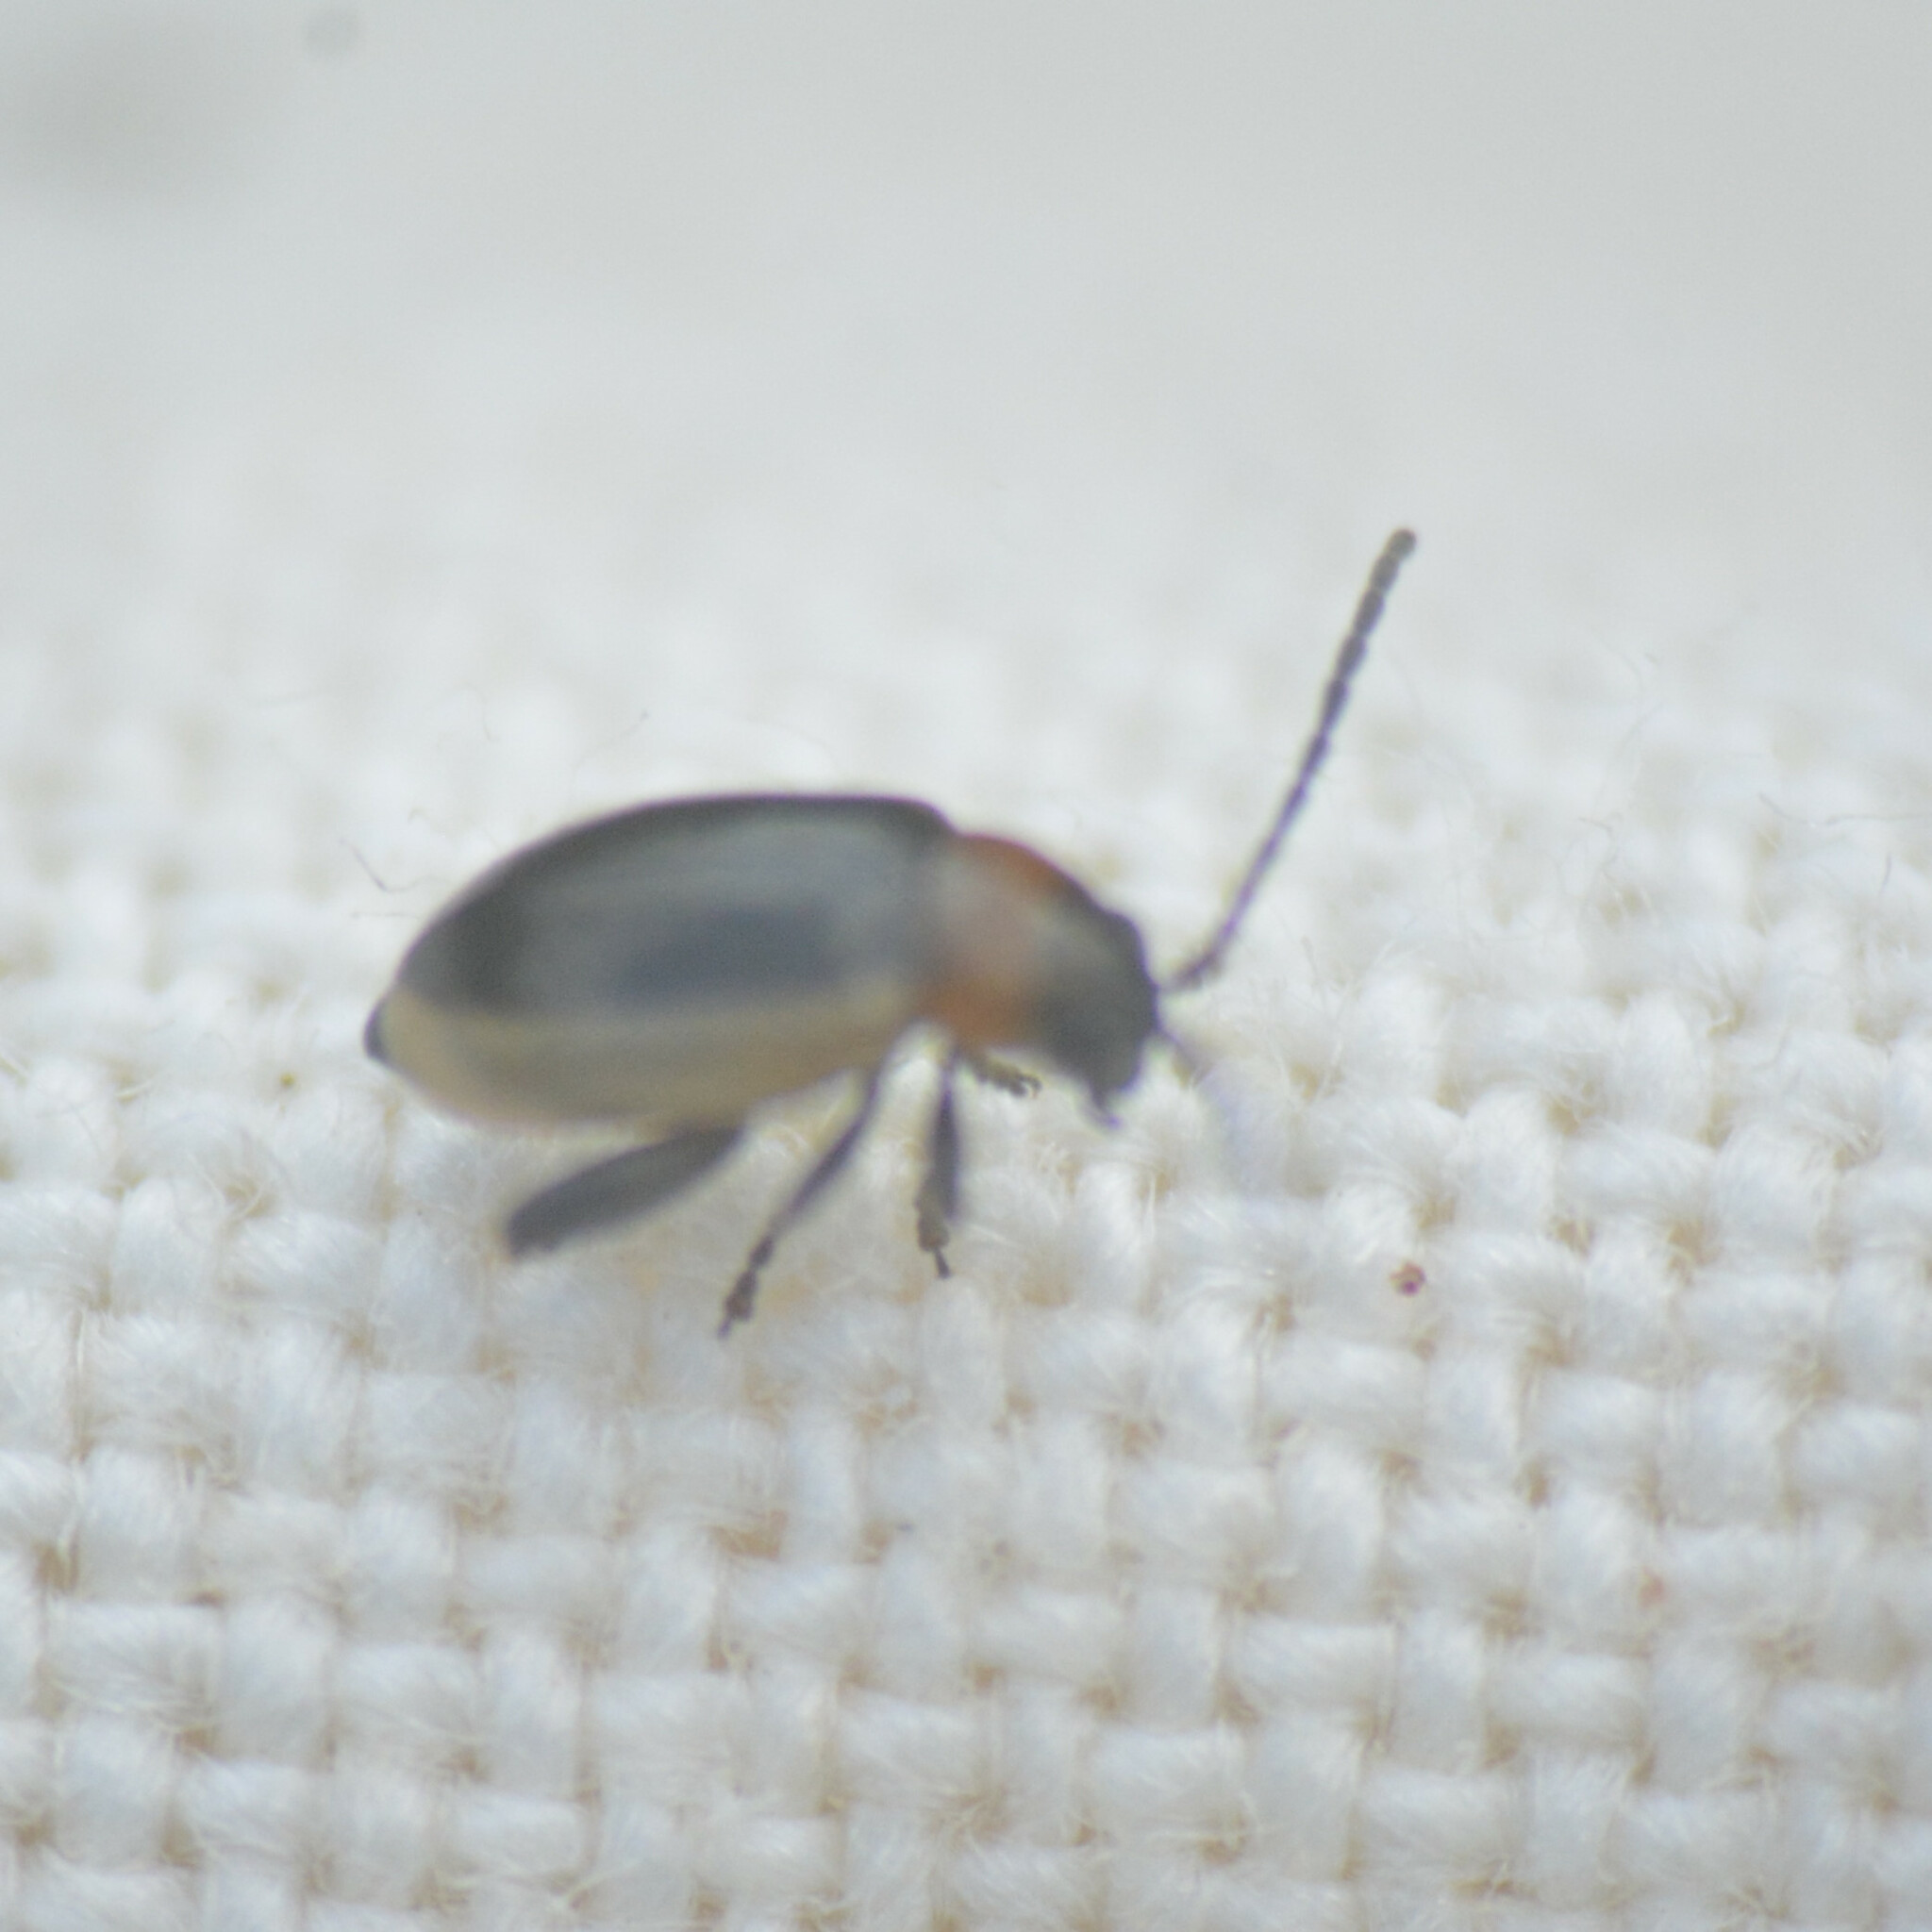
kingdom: Animalia
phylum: Arthropoda
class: Insecta
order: Coleoptera
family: Chrysomelidae
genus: Longitarsus
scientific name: Longitarsus dorsalis
